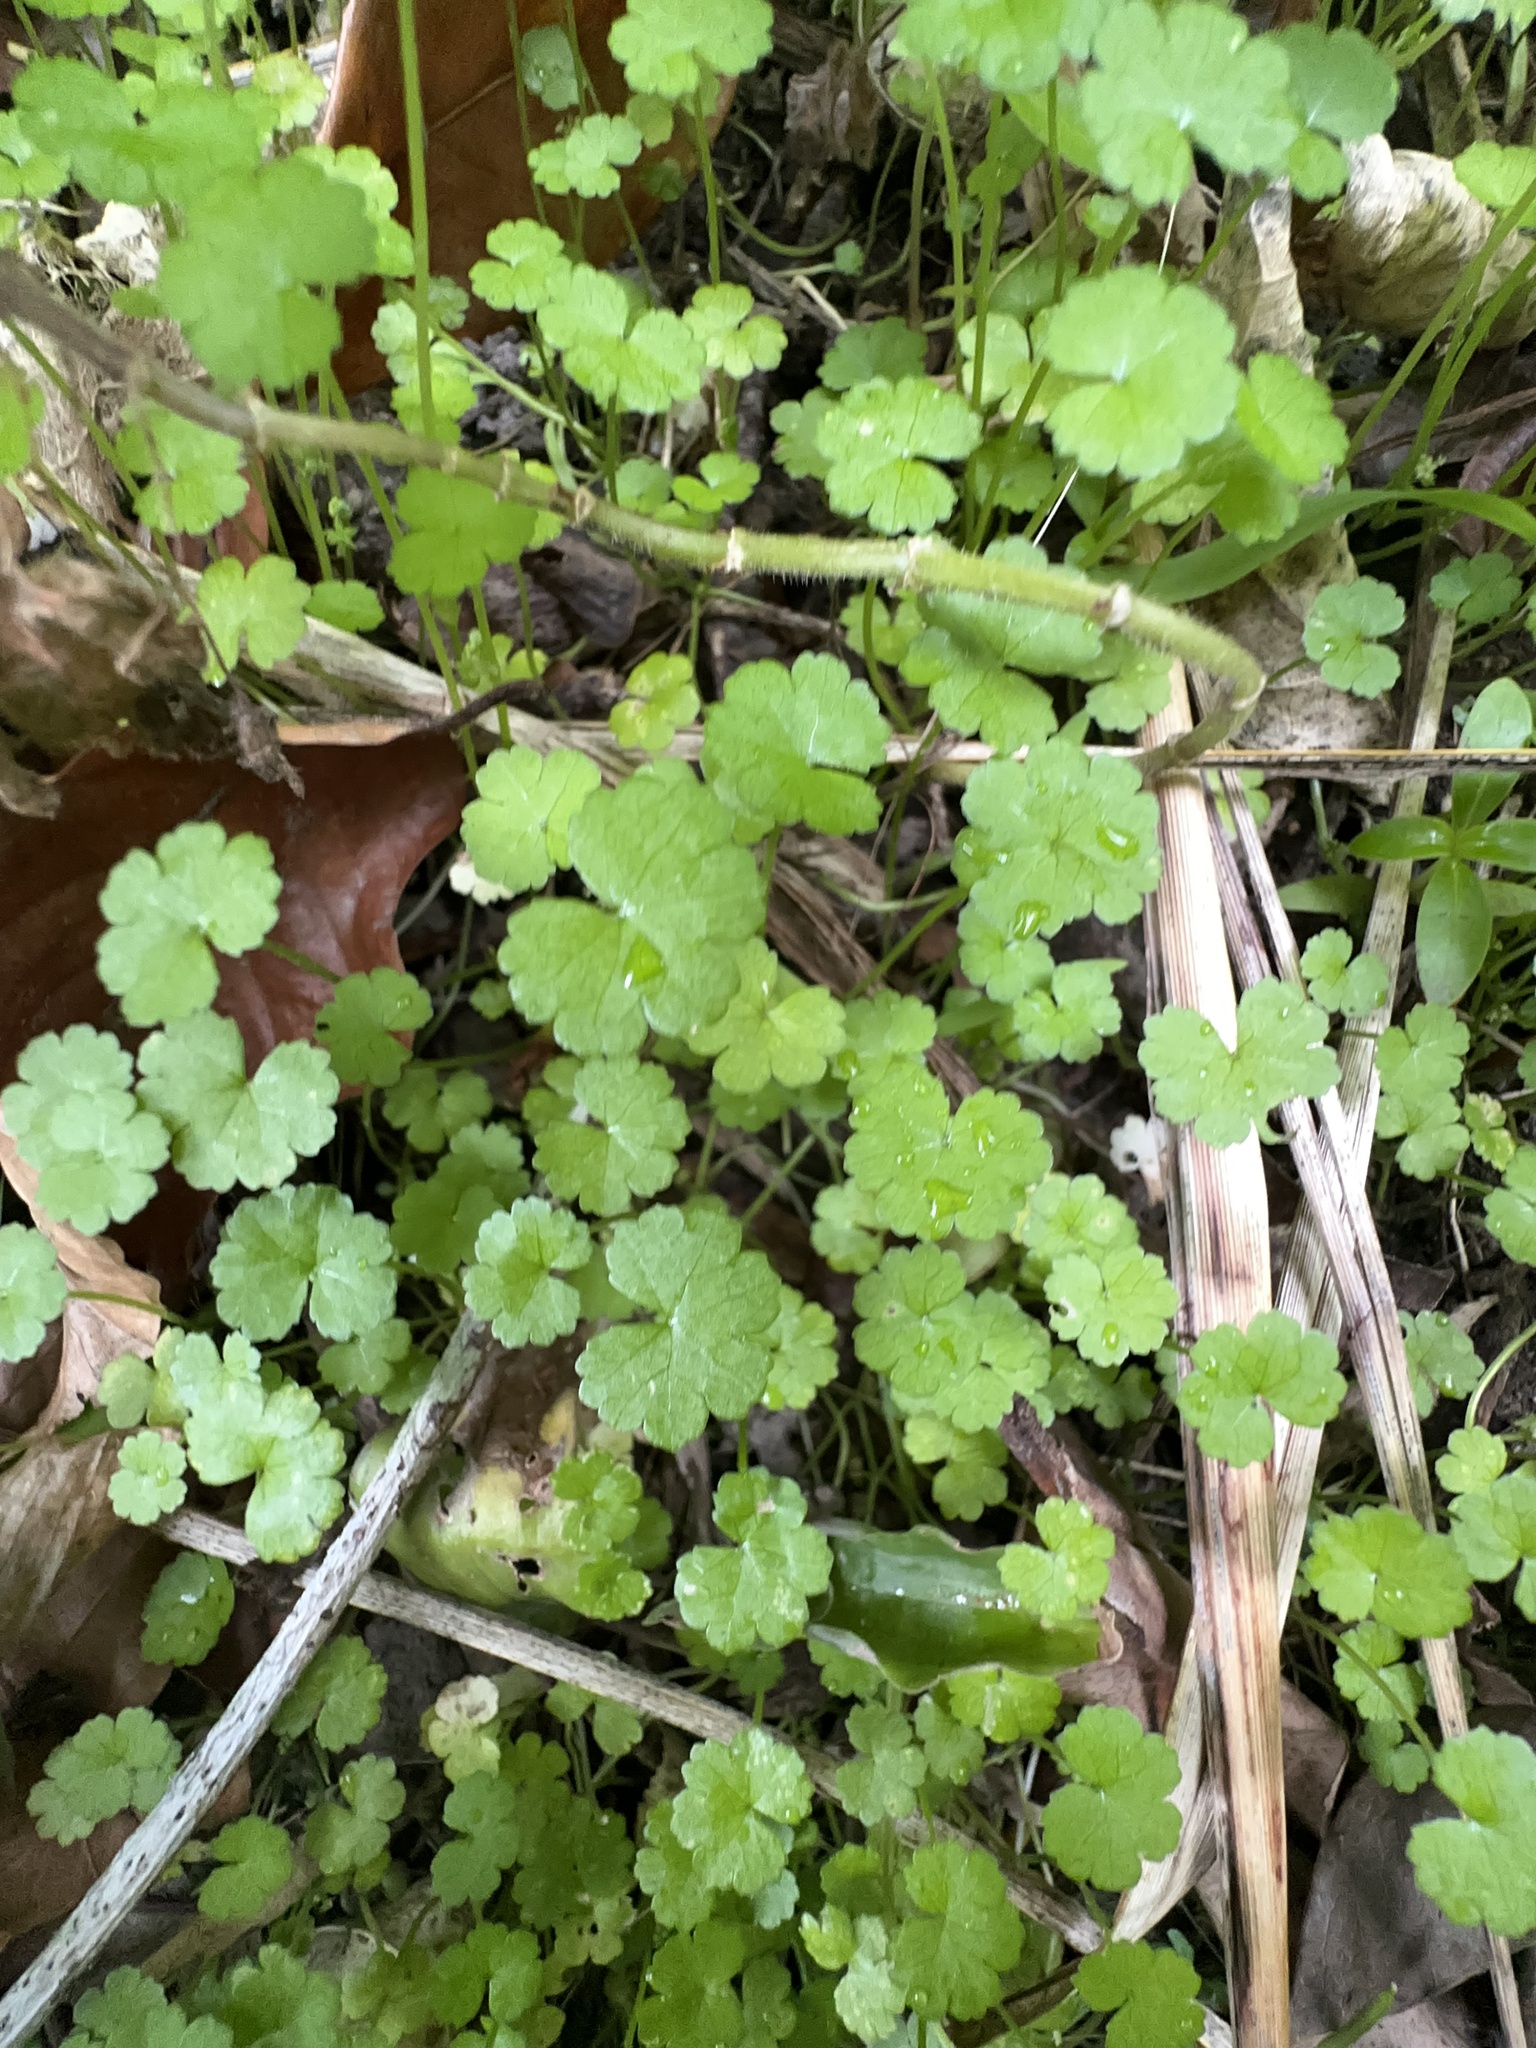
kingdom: Plantae
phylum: Tracheophyta
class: Magnoliopsida
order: Apiales
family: Araliaceae
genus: Hydrocotyle
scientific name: Hydrocotyle heteromeria
